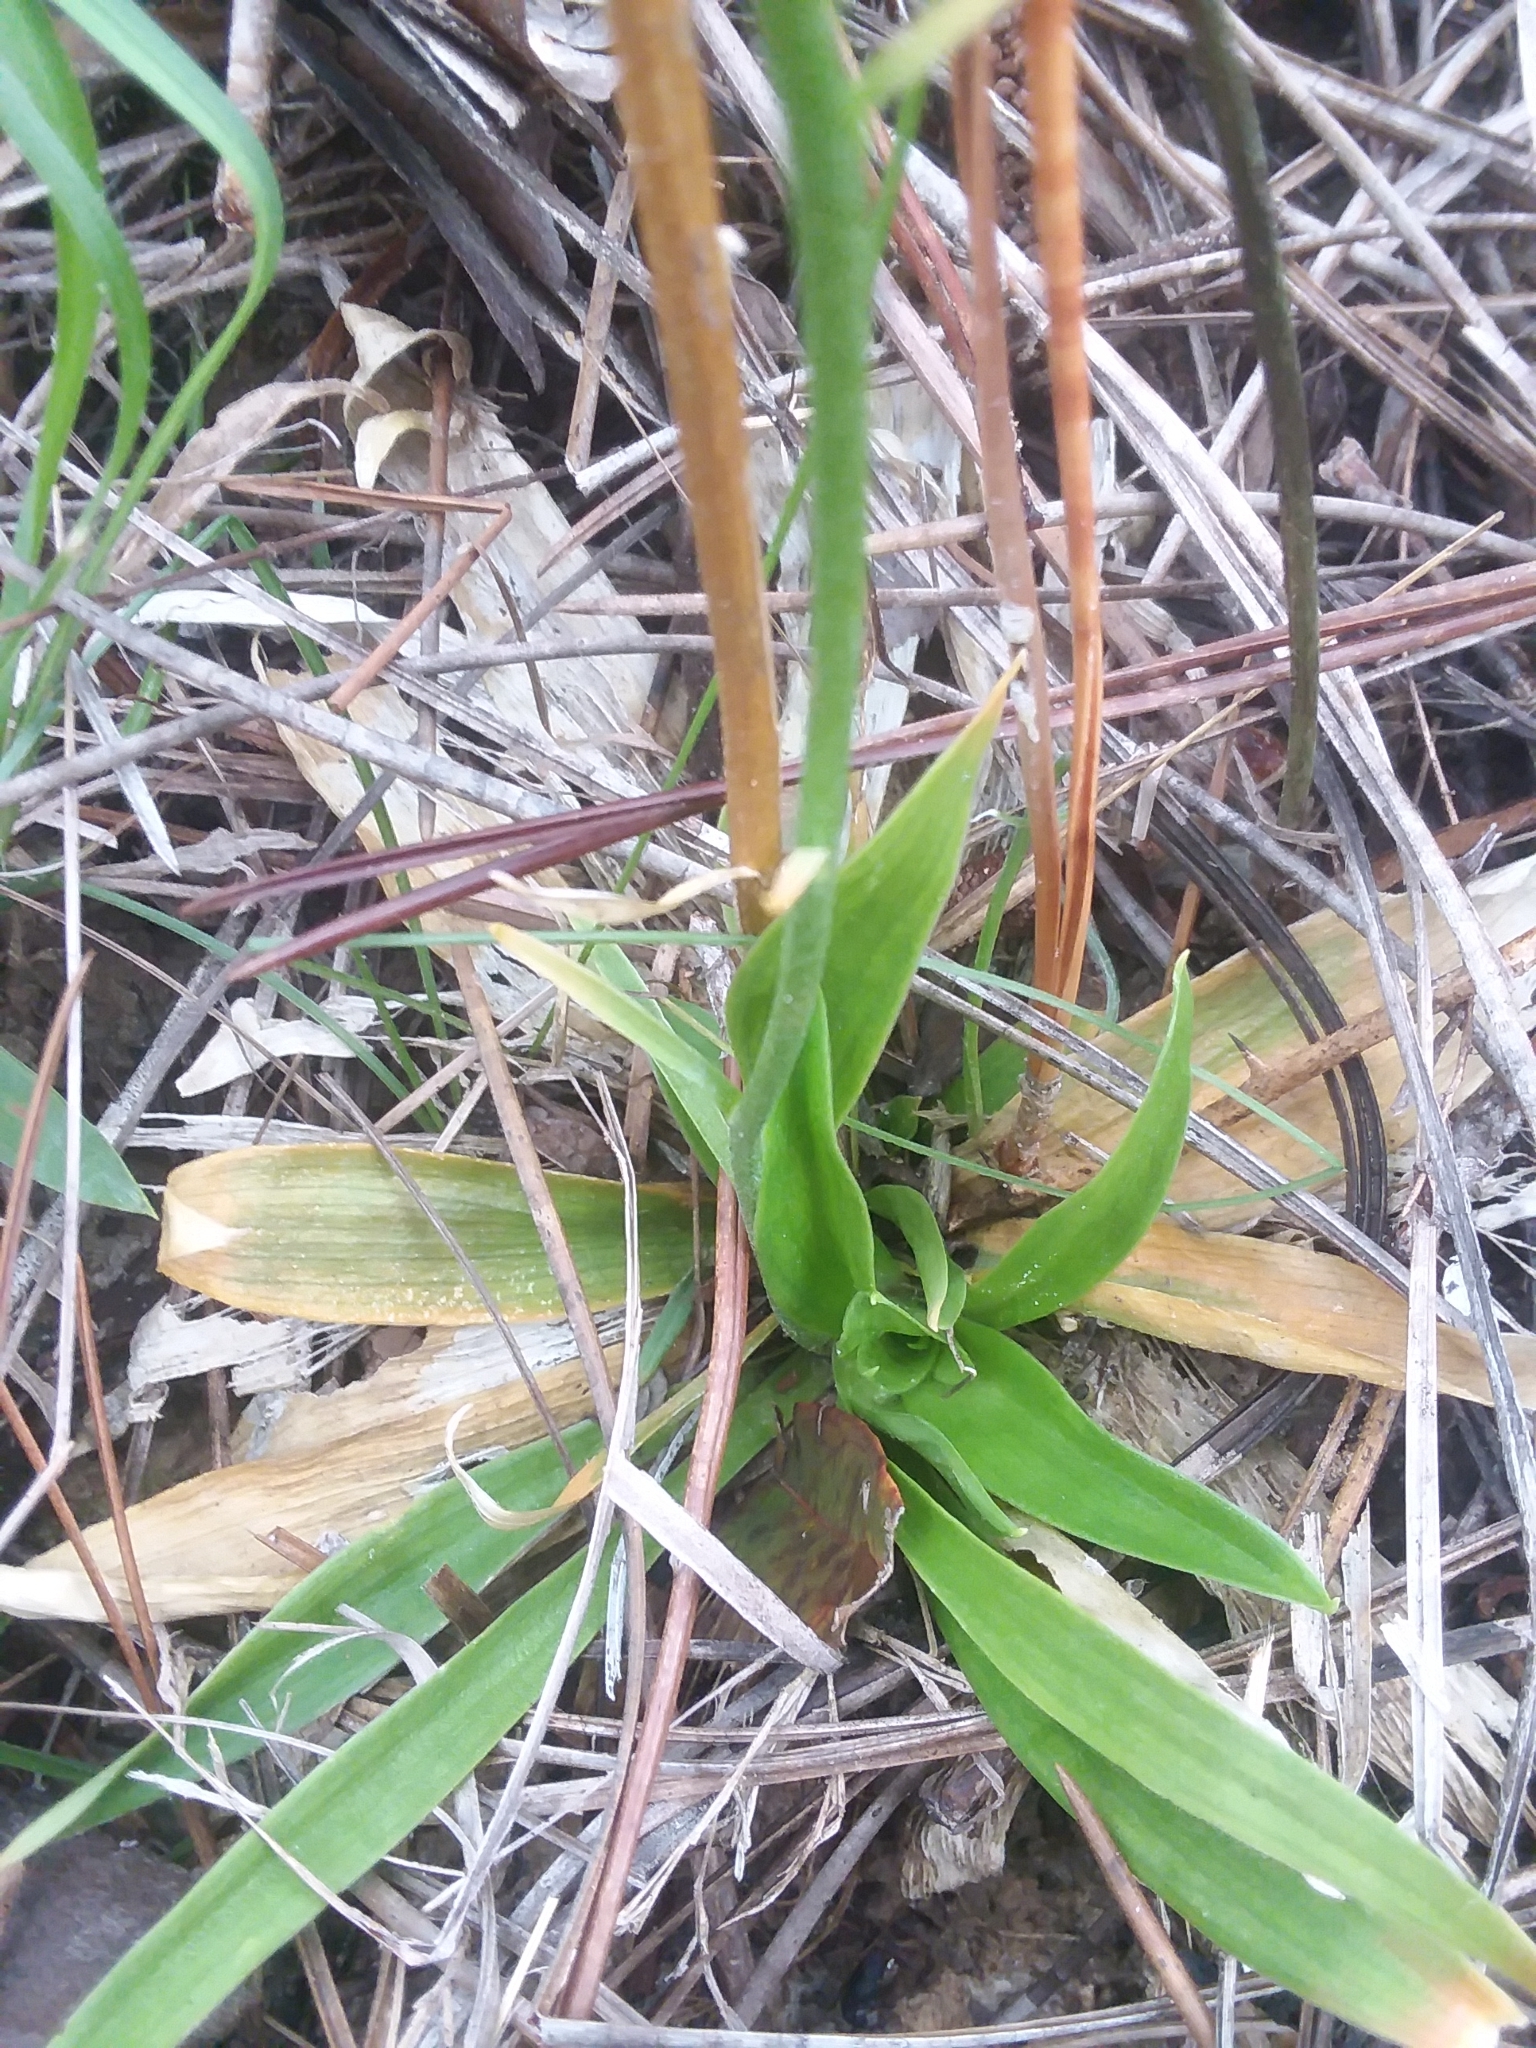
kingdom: Plantae
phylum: Tracheophyta
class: Liliopsida
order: Dioscoreales
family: Nartheciaceae
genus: Aletris
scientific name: Aletris aurea
